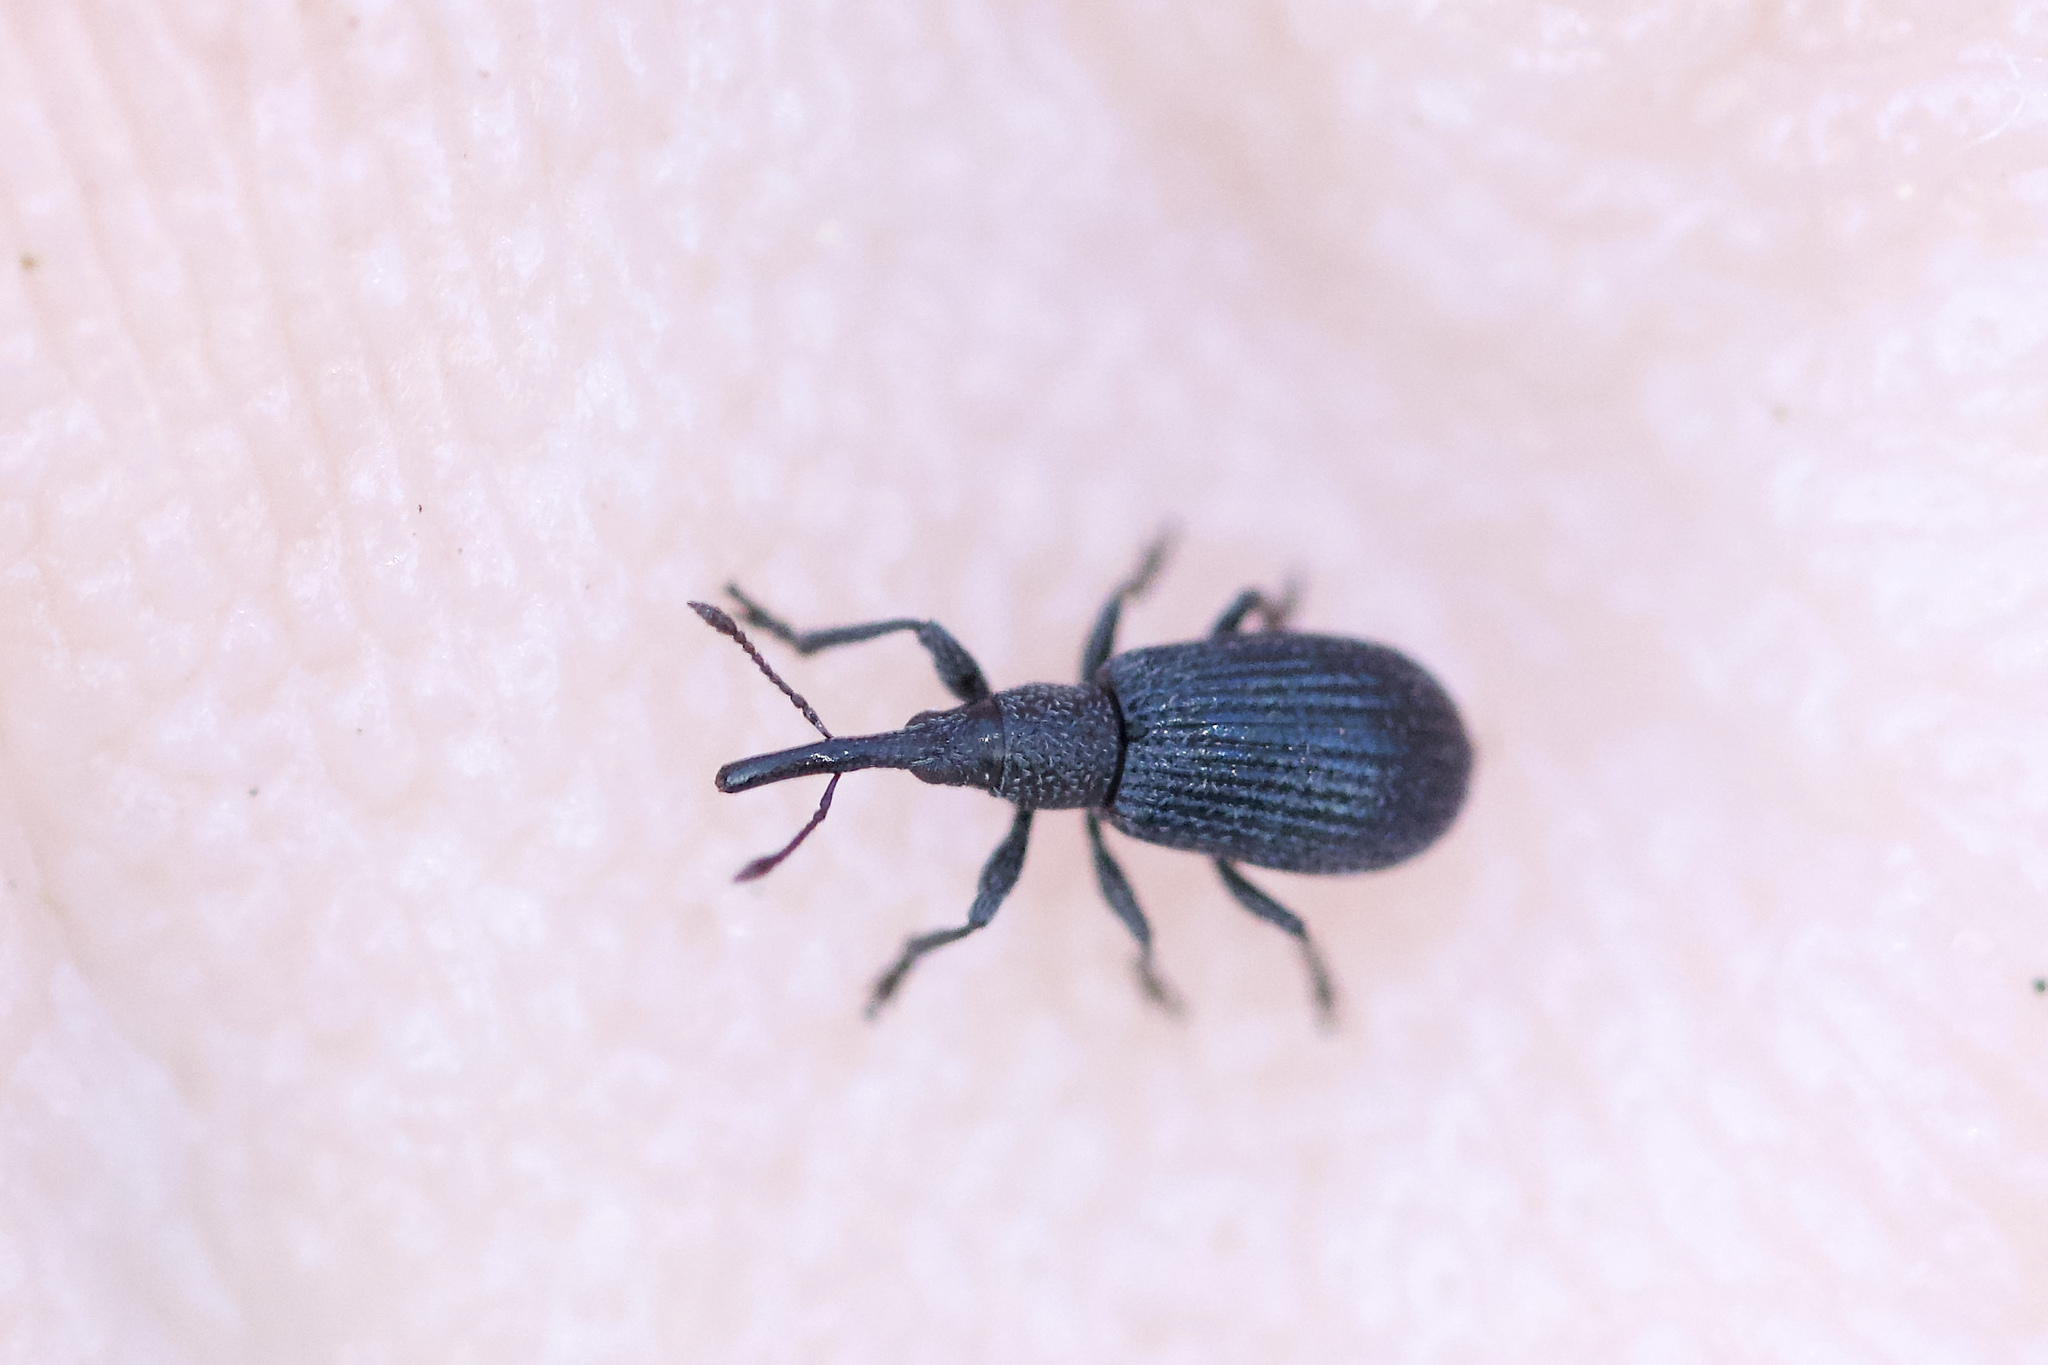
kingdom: Animalia
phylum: Arthropoda
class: Insecta
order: Coleoptera
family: Brentidae
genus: Stenopterapion
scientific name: Stenopterapion meliloti
